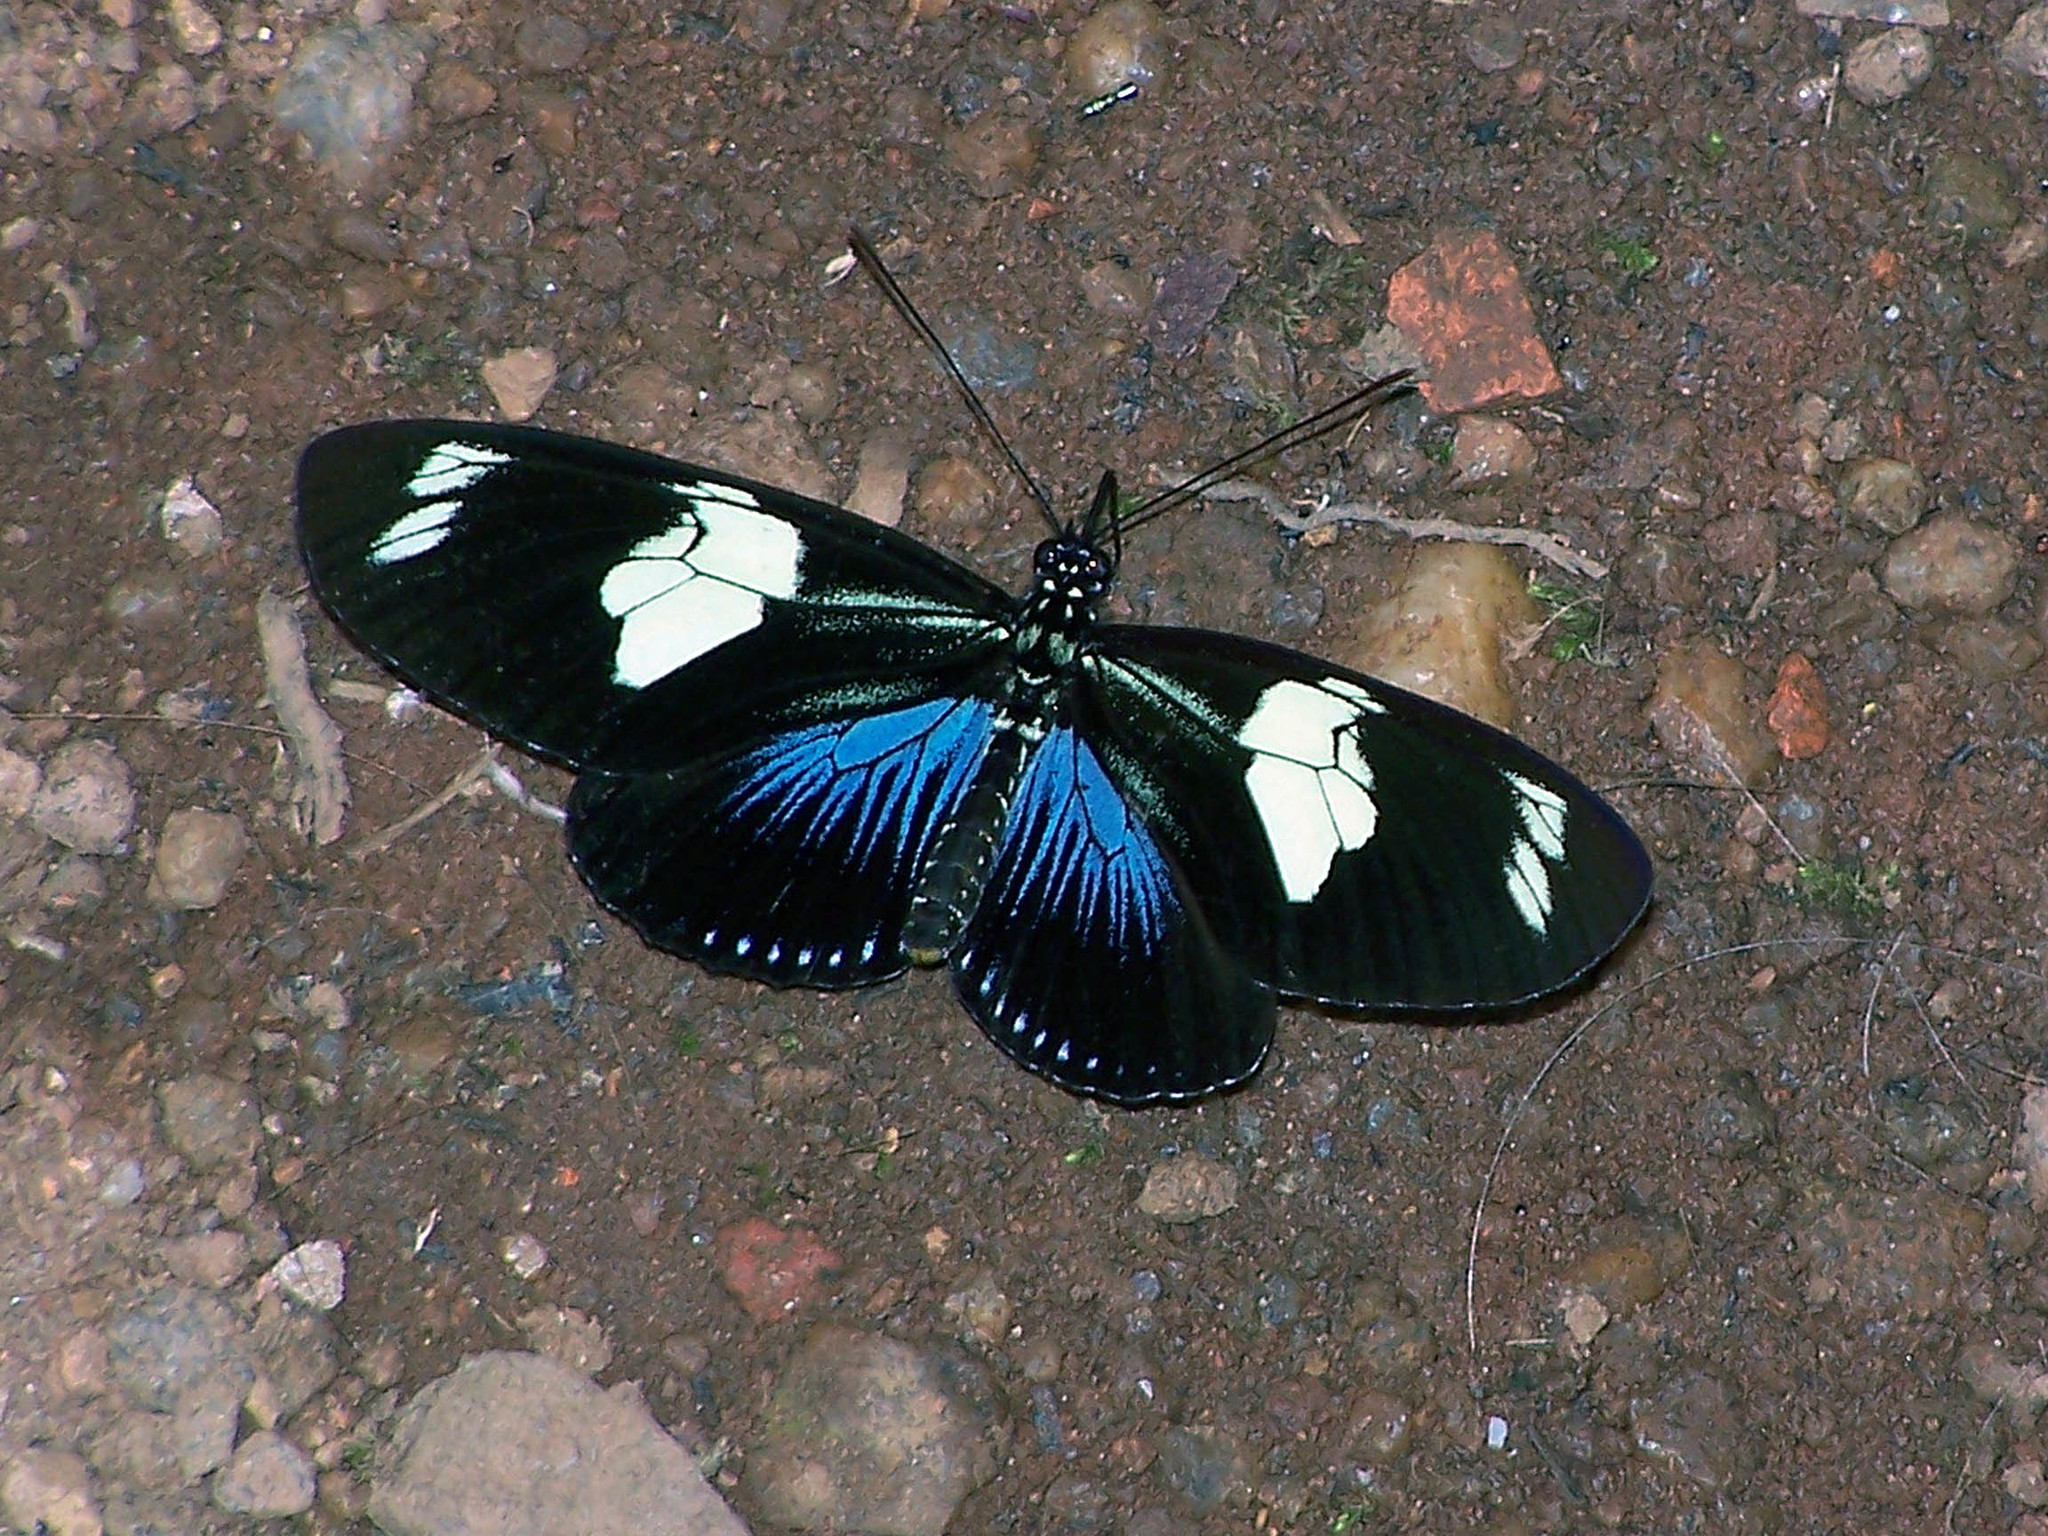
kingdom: Animalia
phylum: Arthropoda
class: Insecta
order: Lepidoptera
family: Nymphalidae
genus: Heliconius
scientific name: Heliconius doris
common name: Doris longwing
